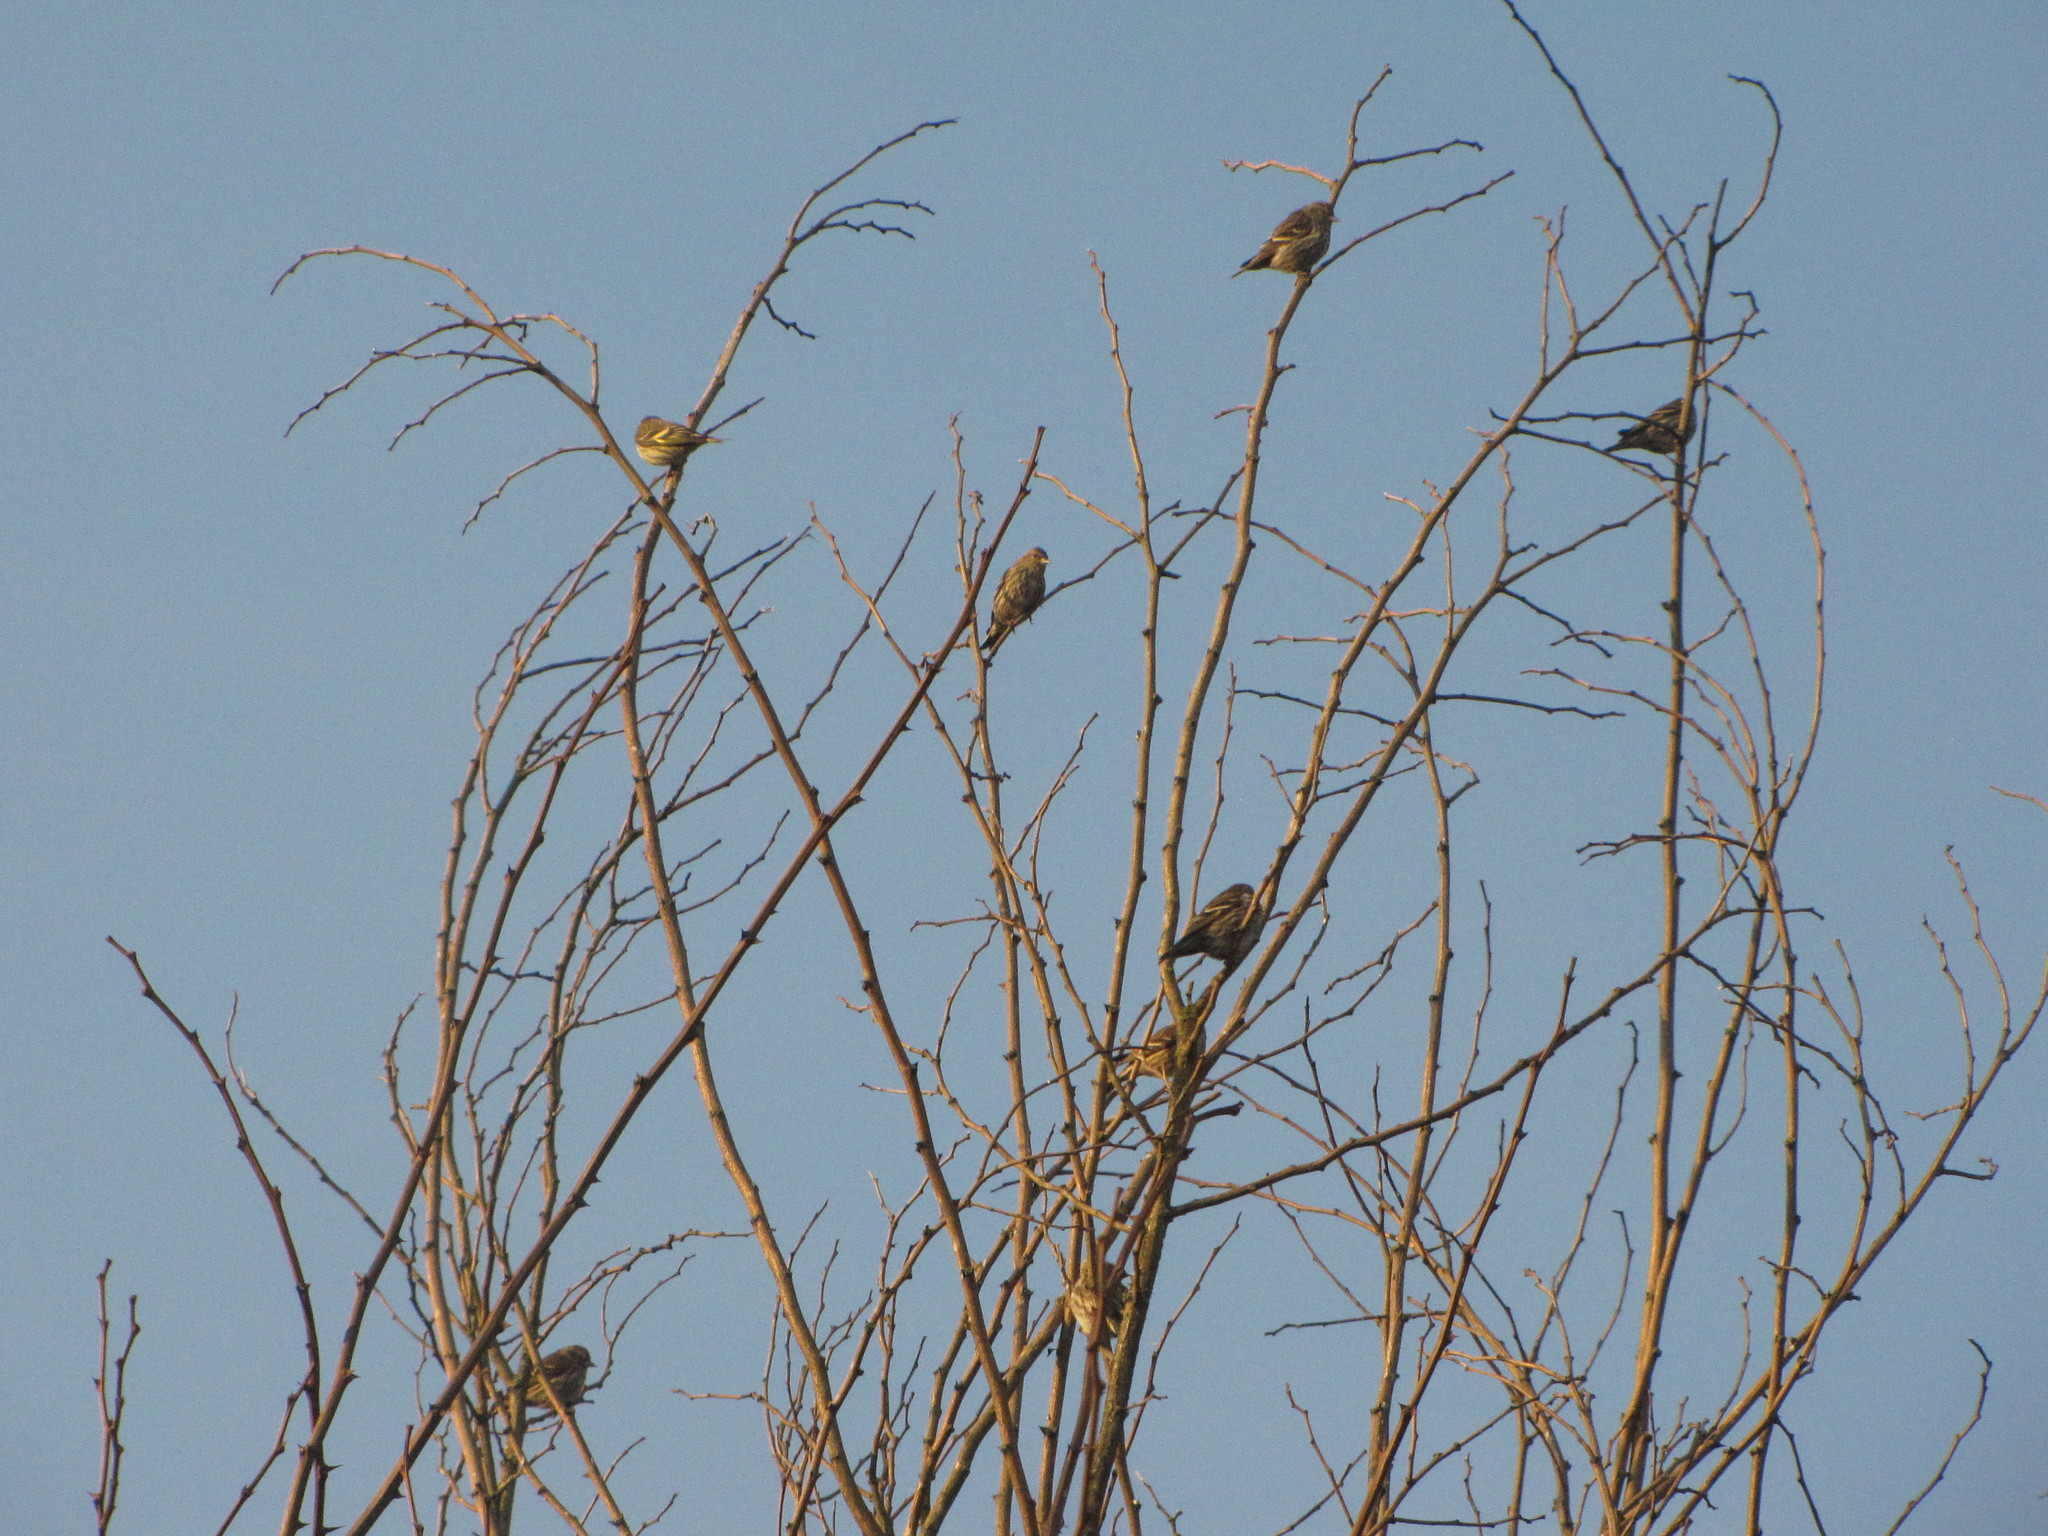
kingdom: Animalia
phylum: Chordata
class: Aves
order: Passeriformes
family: Fringillidae
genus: Spinus
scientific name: Spinus pinus
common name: Pine siskin
